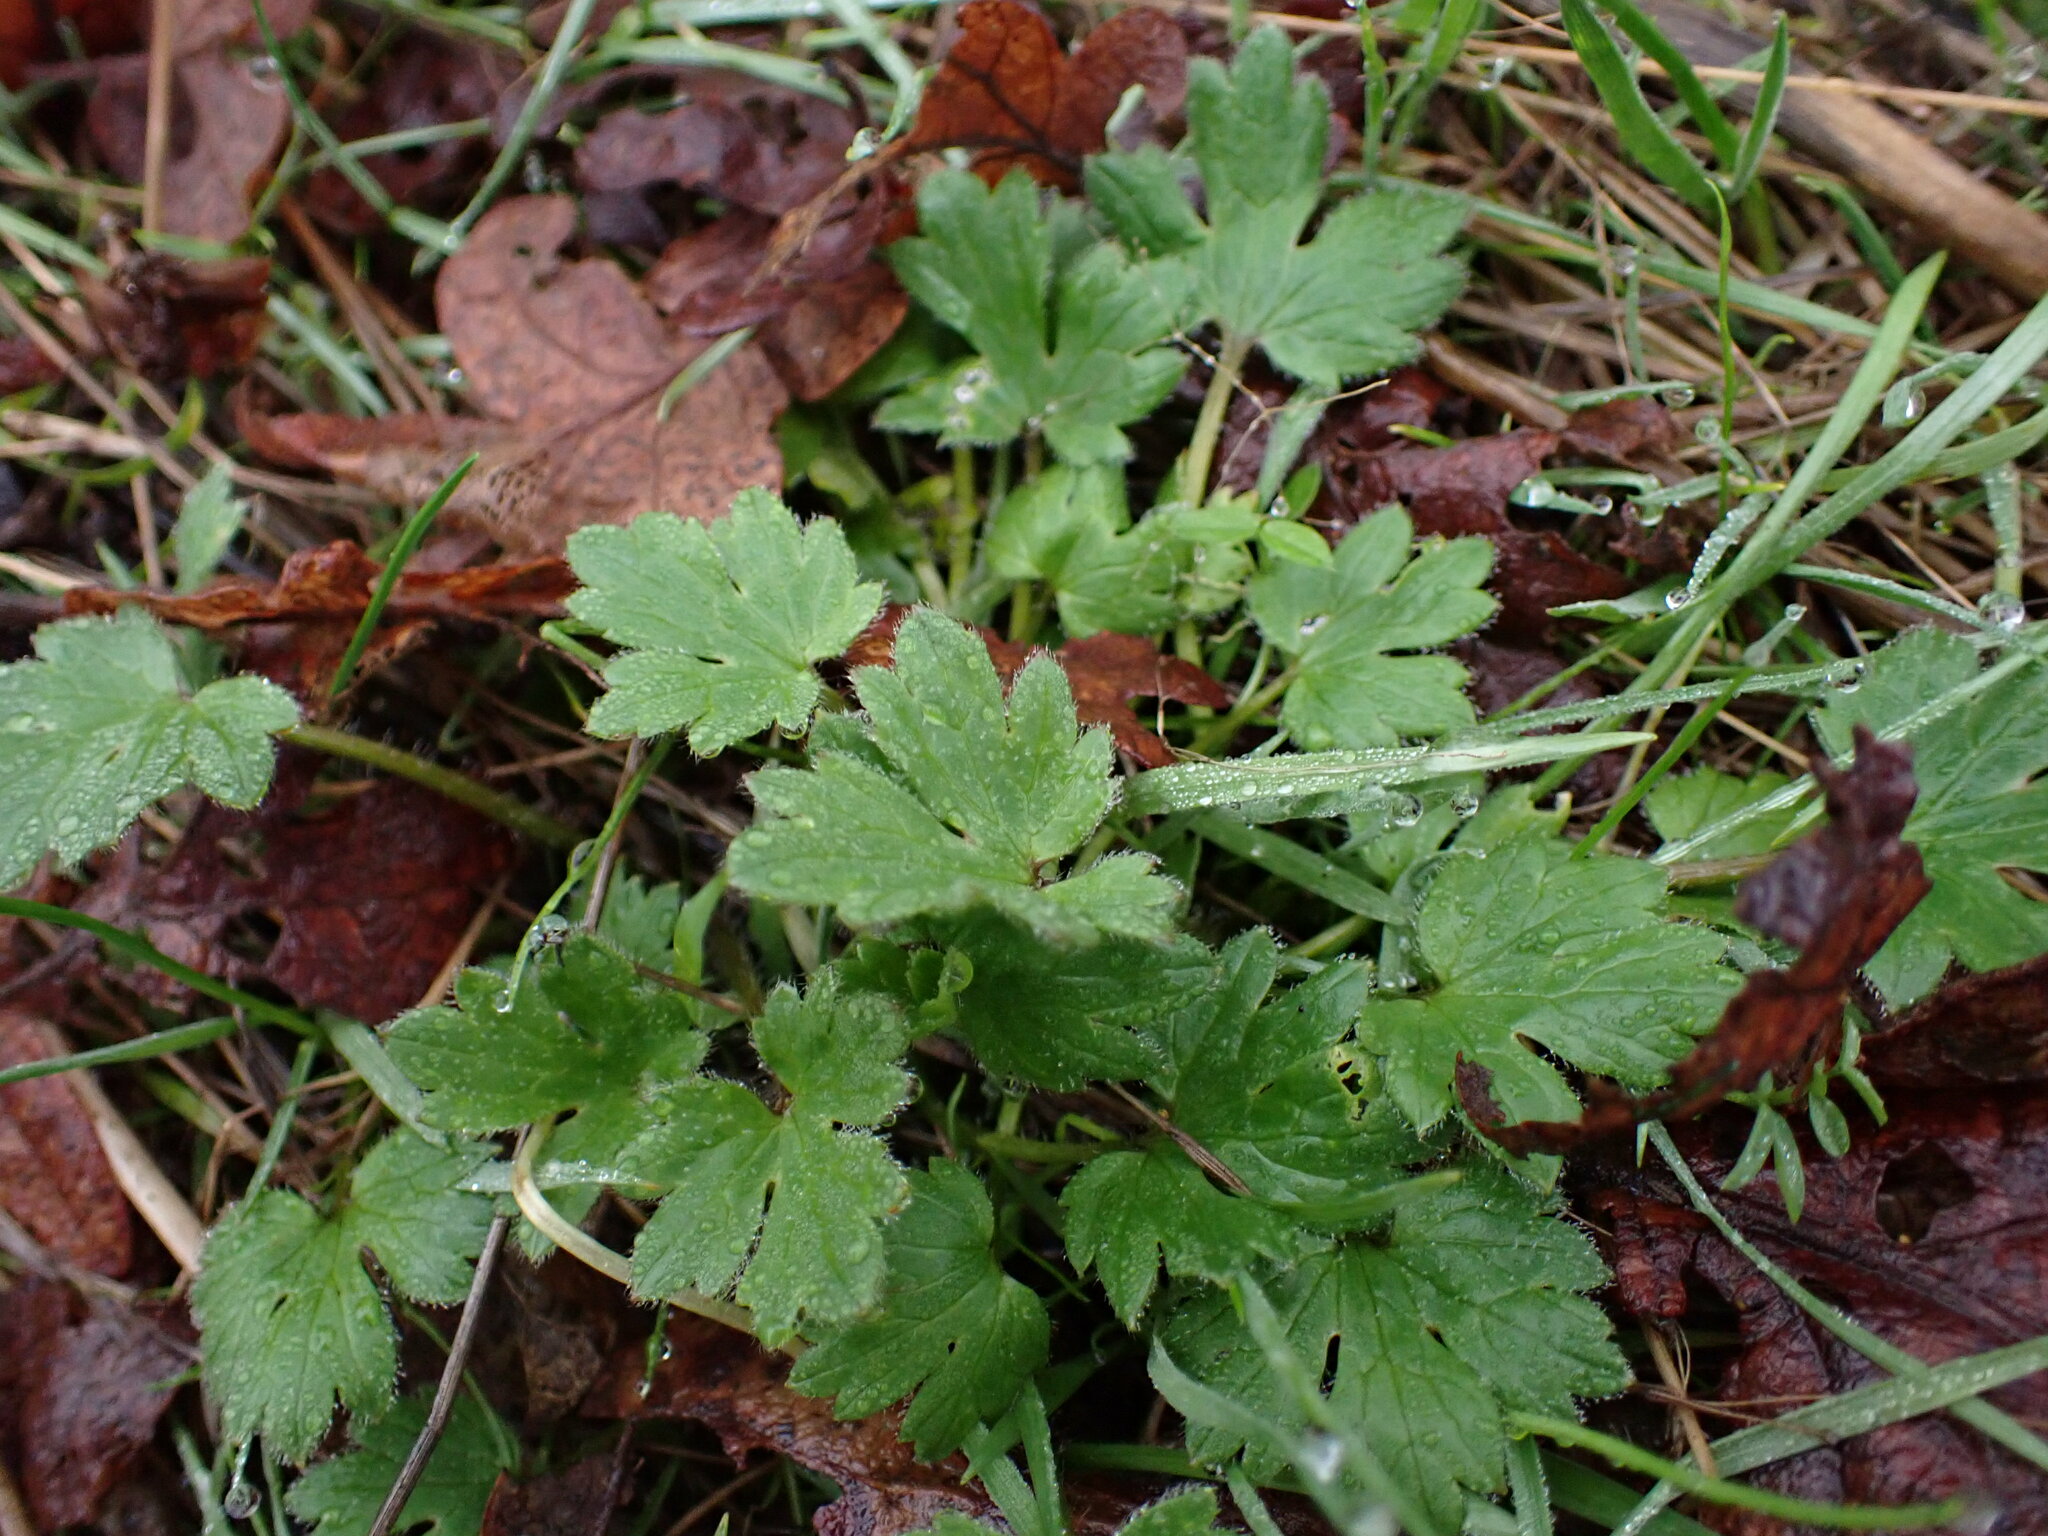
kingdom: Plantae
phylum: Tracheophyta
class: Magnoliopsida
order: Ranunculales
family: Ranunculaceae
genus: Ranunculus
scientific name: Ranunculus repens
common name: Creeping buttercup
